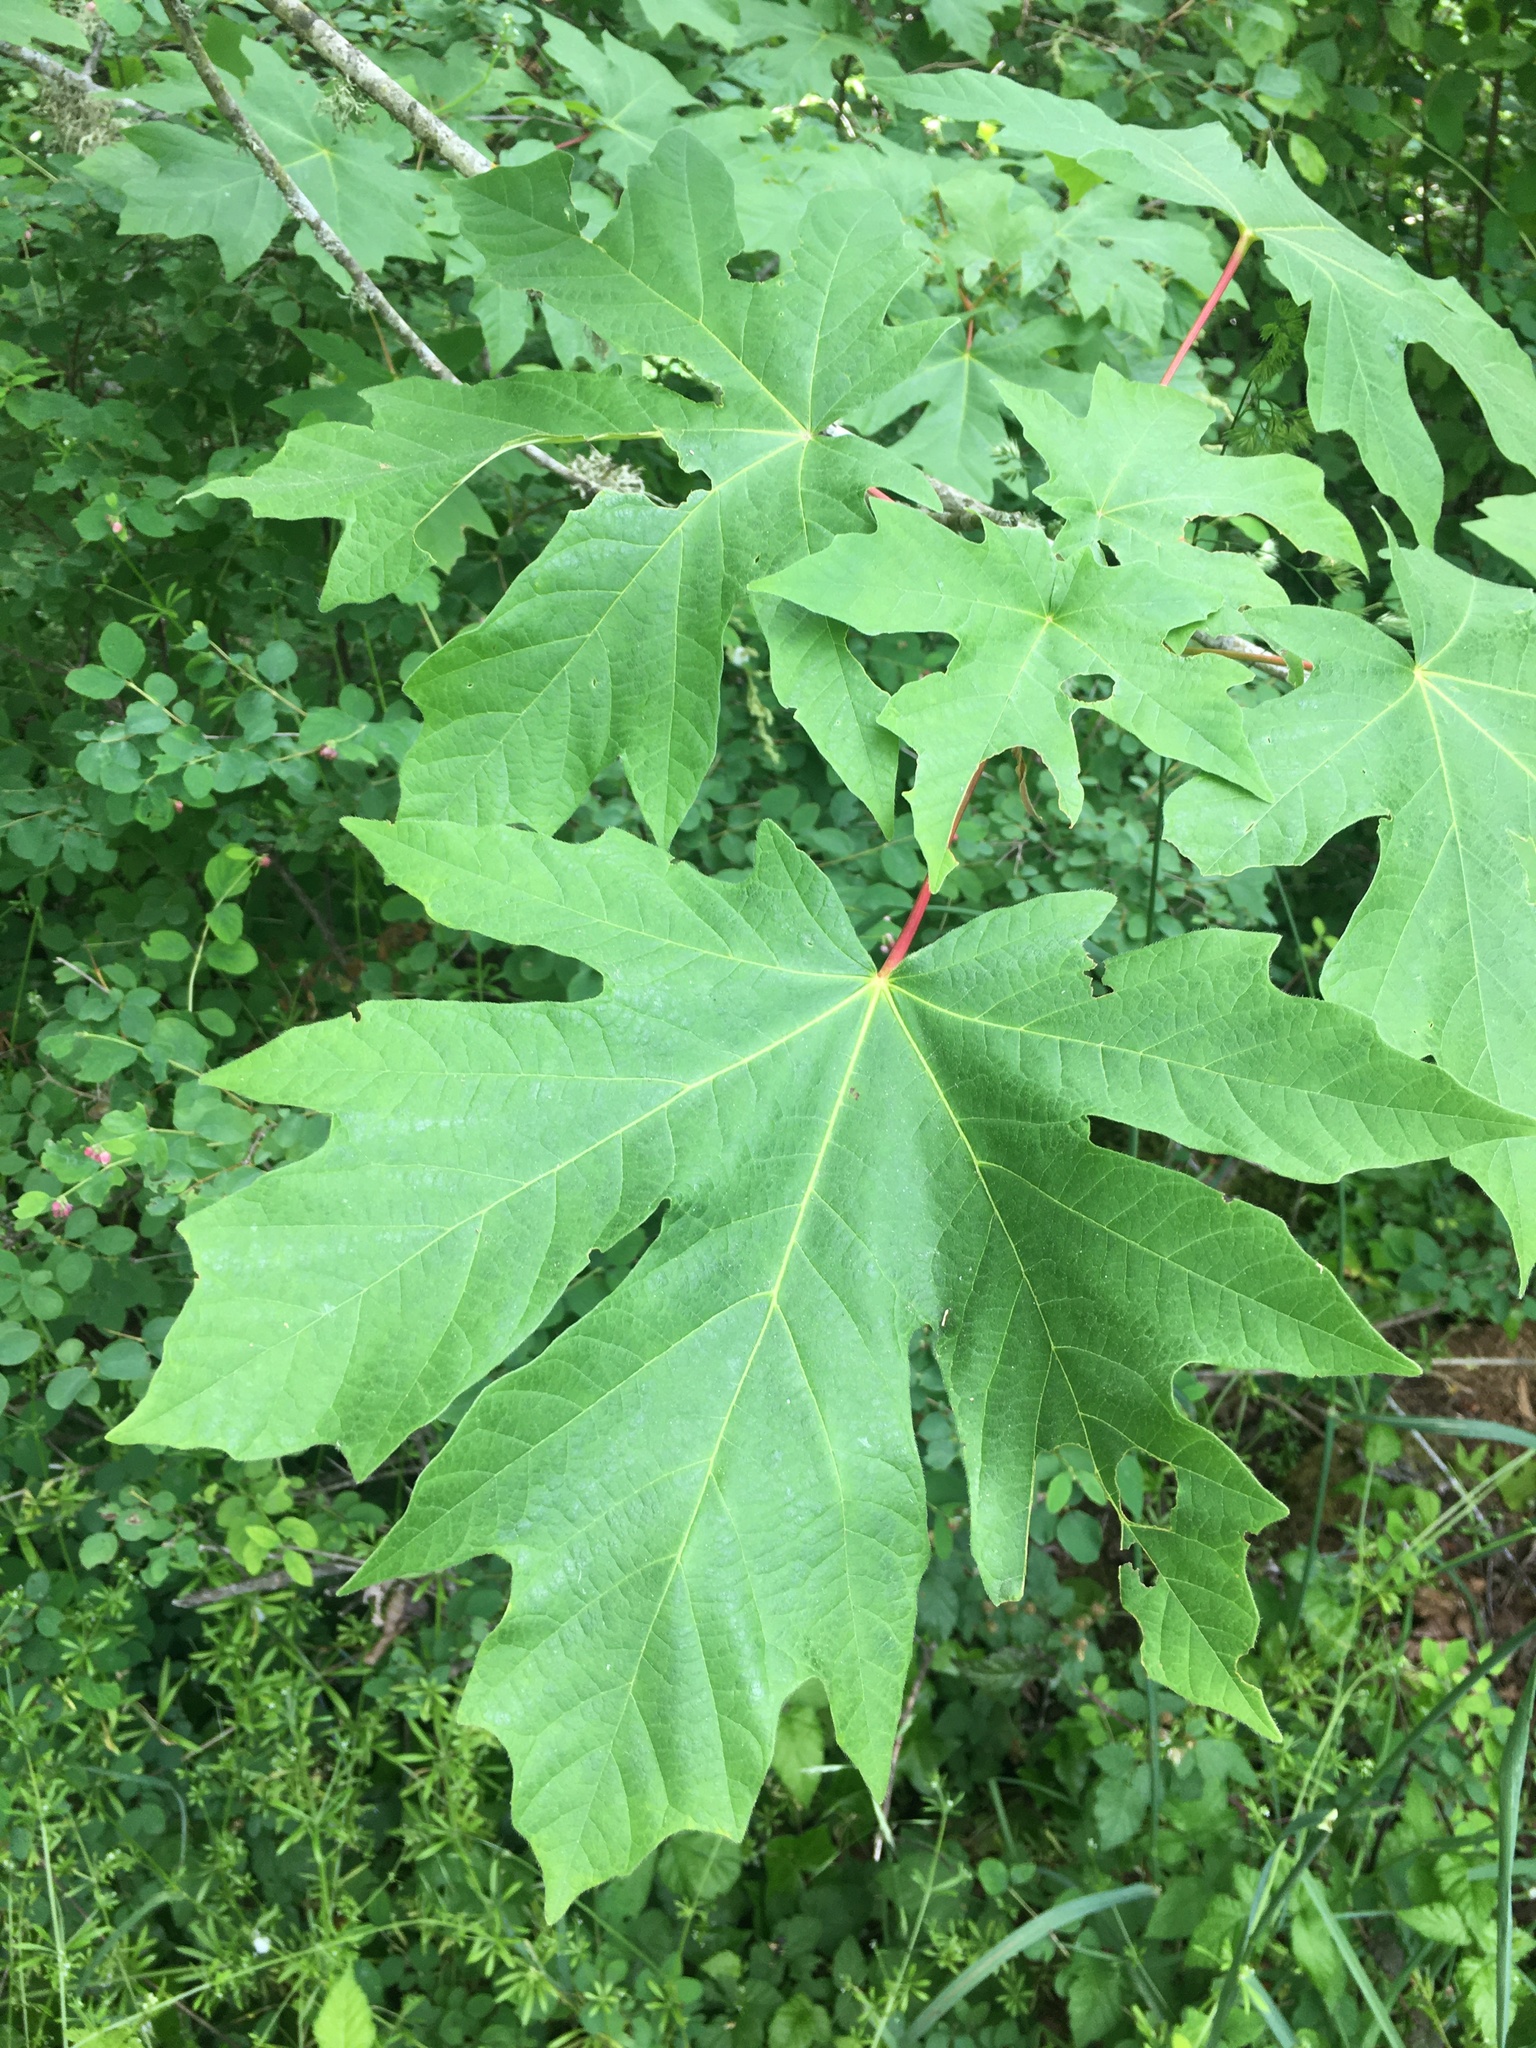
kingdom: Plantae
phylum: Tracheophyta
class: Magnoliopsida
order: Sapindales
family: Sapindaceae
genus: Acer
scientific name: Acer macrophyllum
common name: Oregon maple
